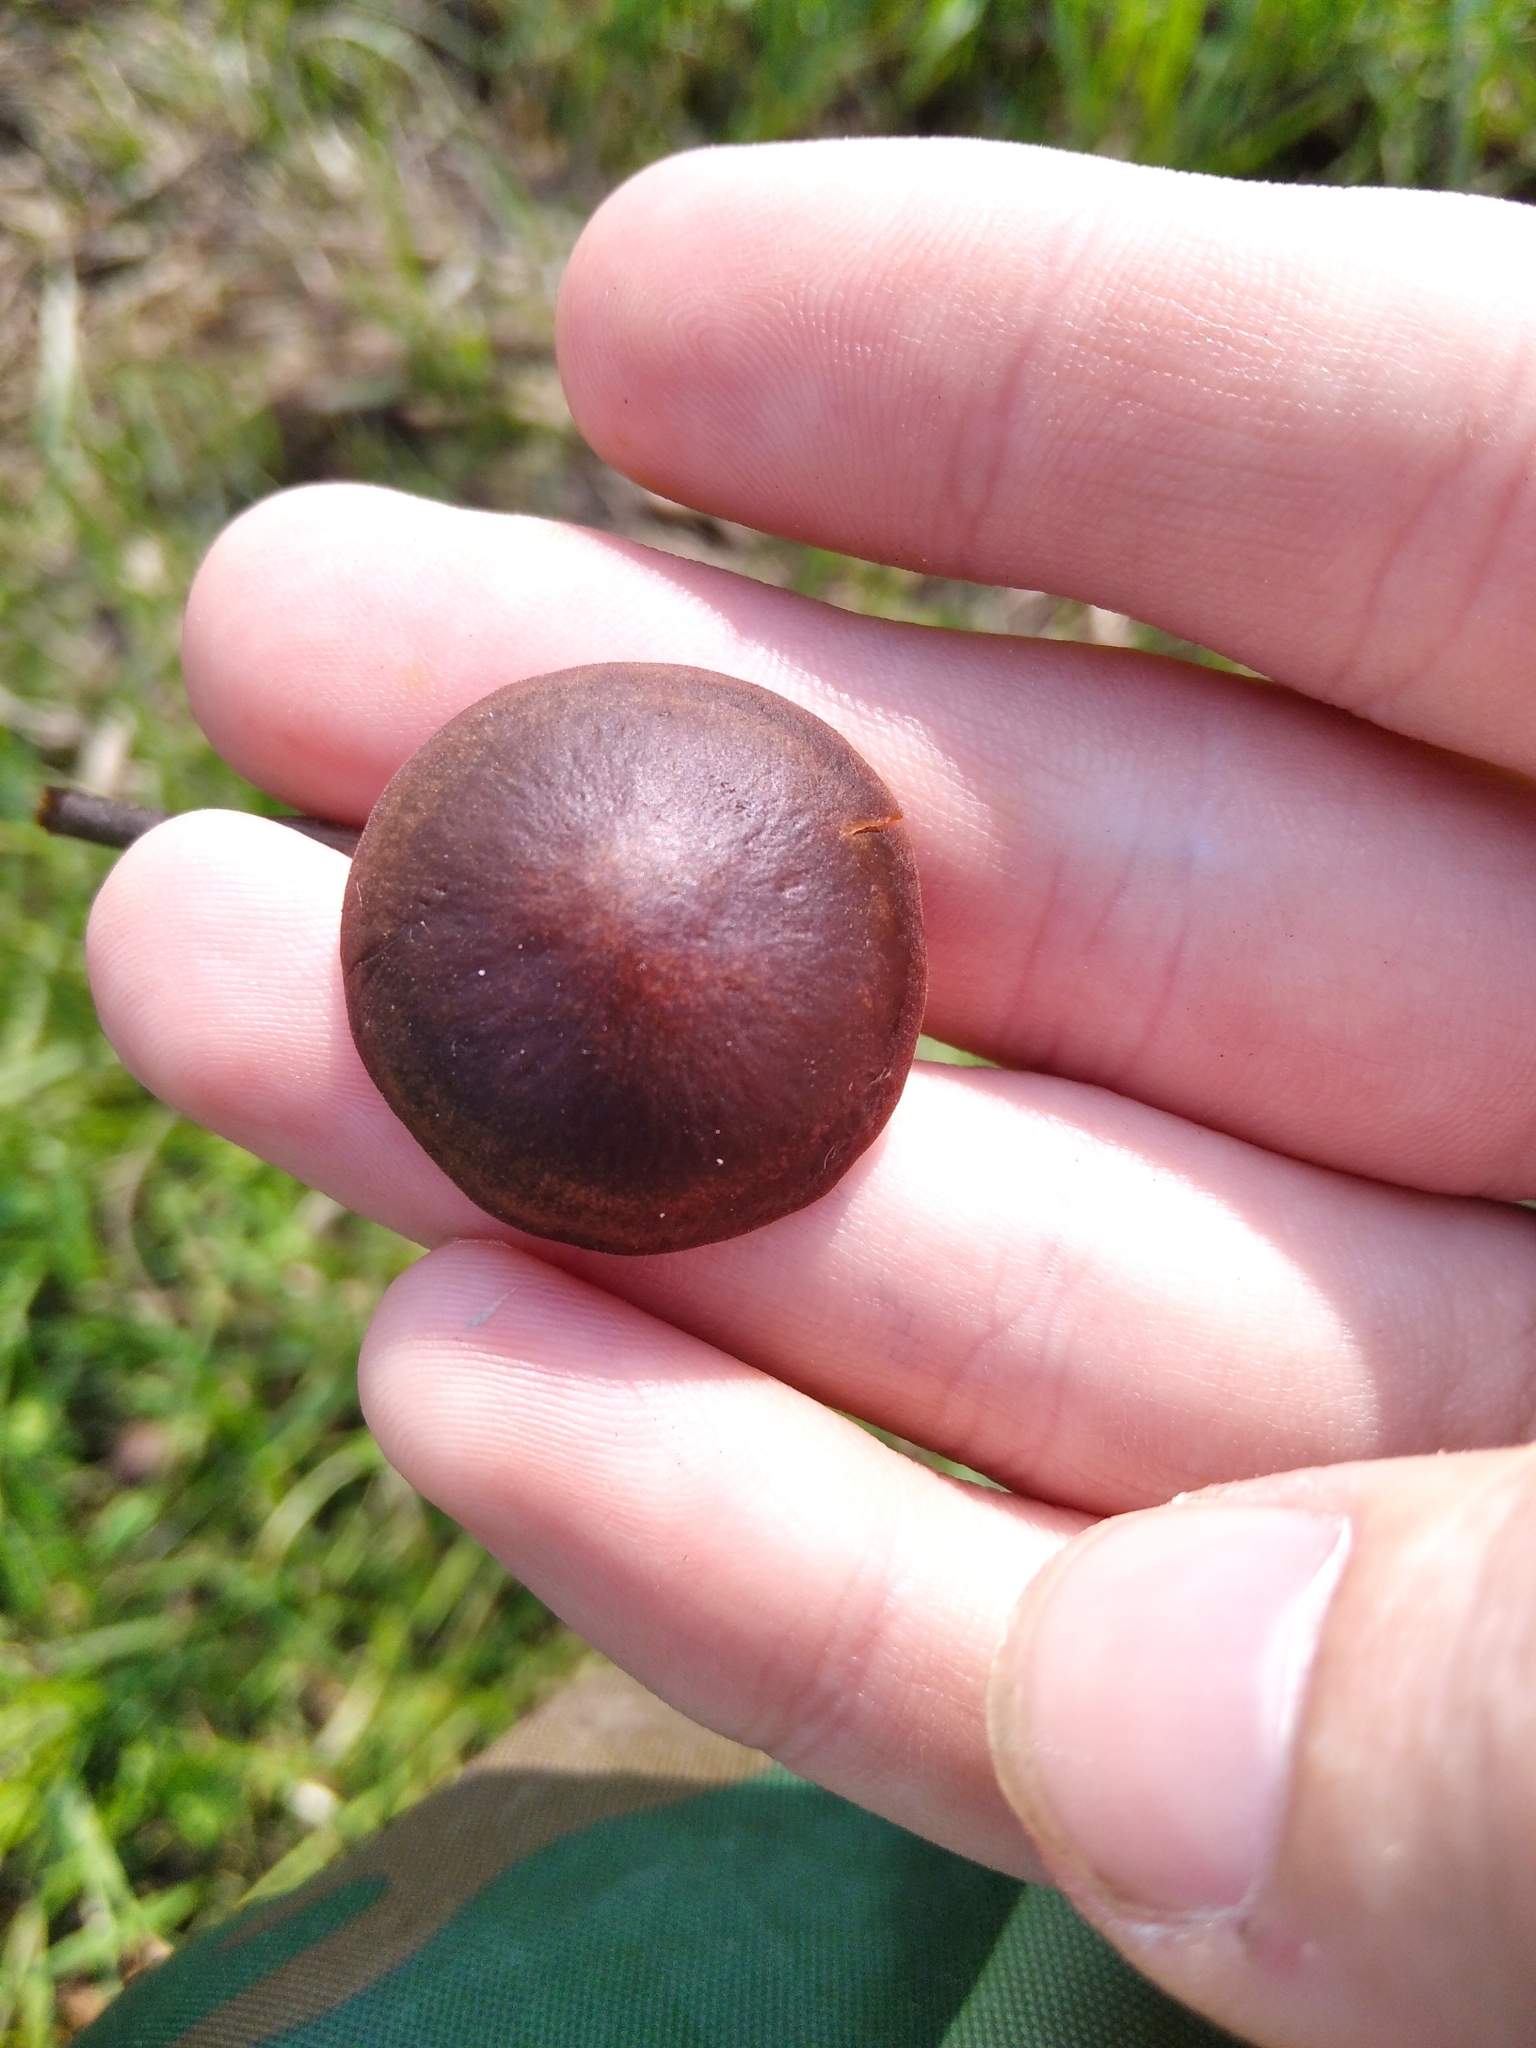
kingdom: Fungi
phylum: Basidiomycota
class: Agaricomycetes
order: Agaricales
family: Bolbitiaceae
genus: Panaeolina
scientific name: Panaeolina foenisecii
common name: Brown hay cap
